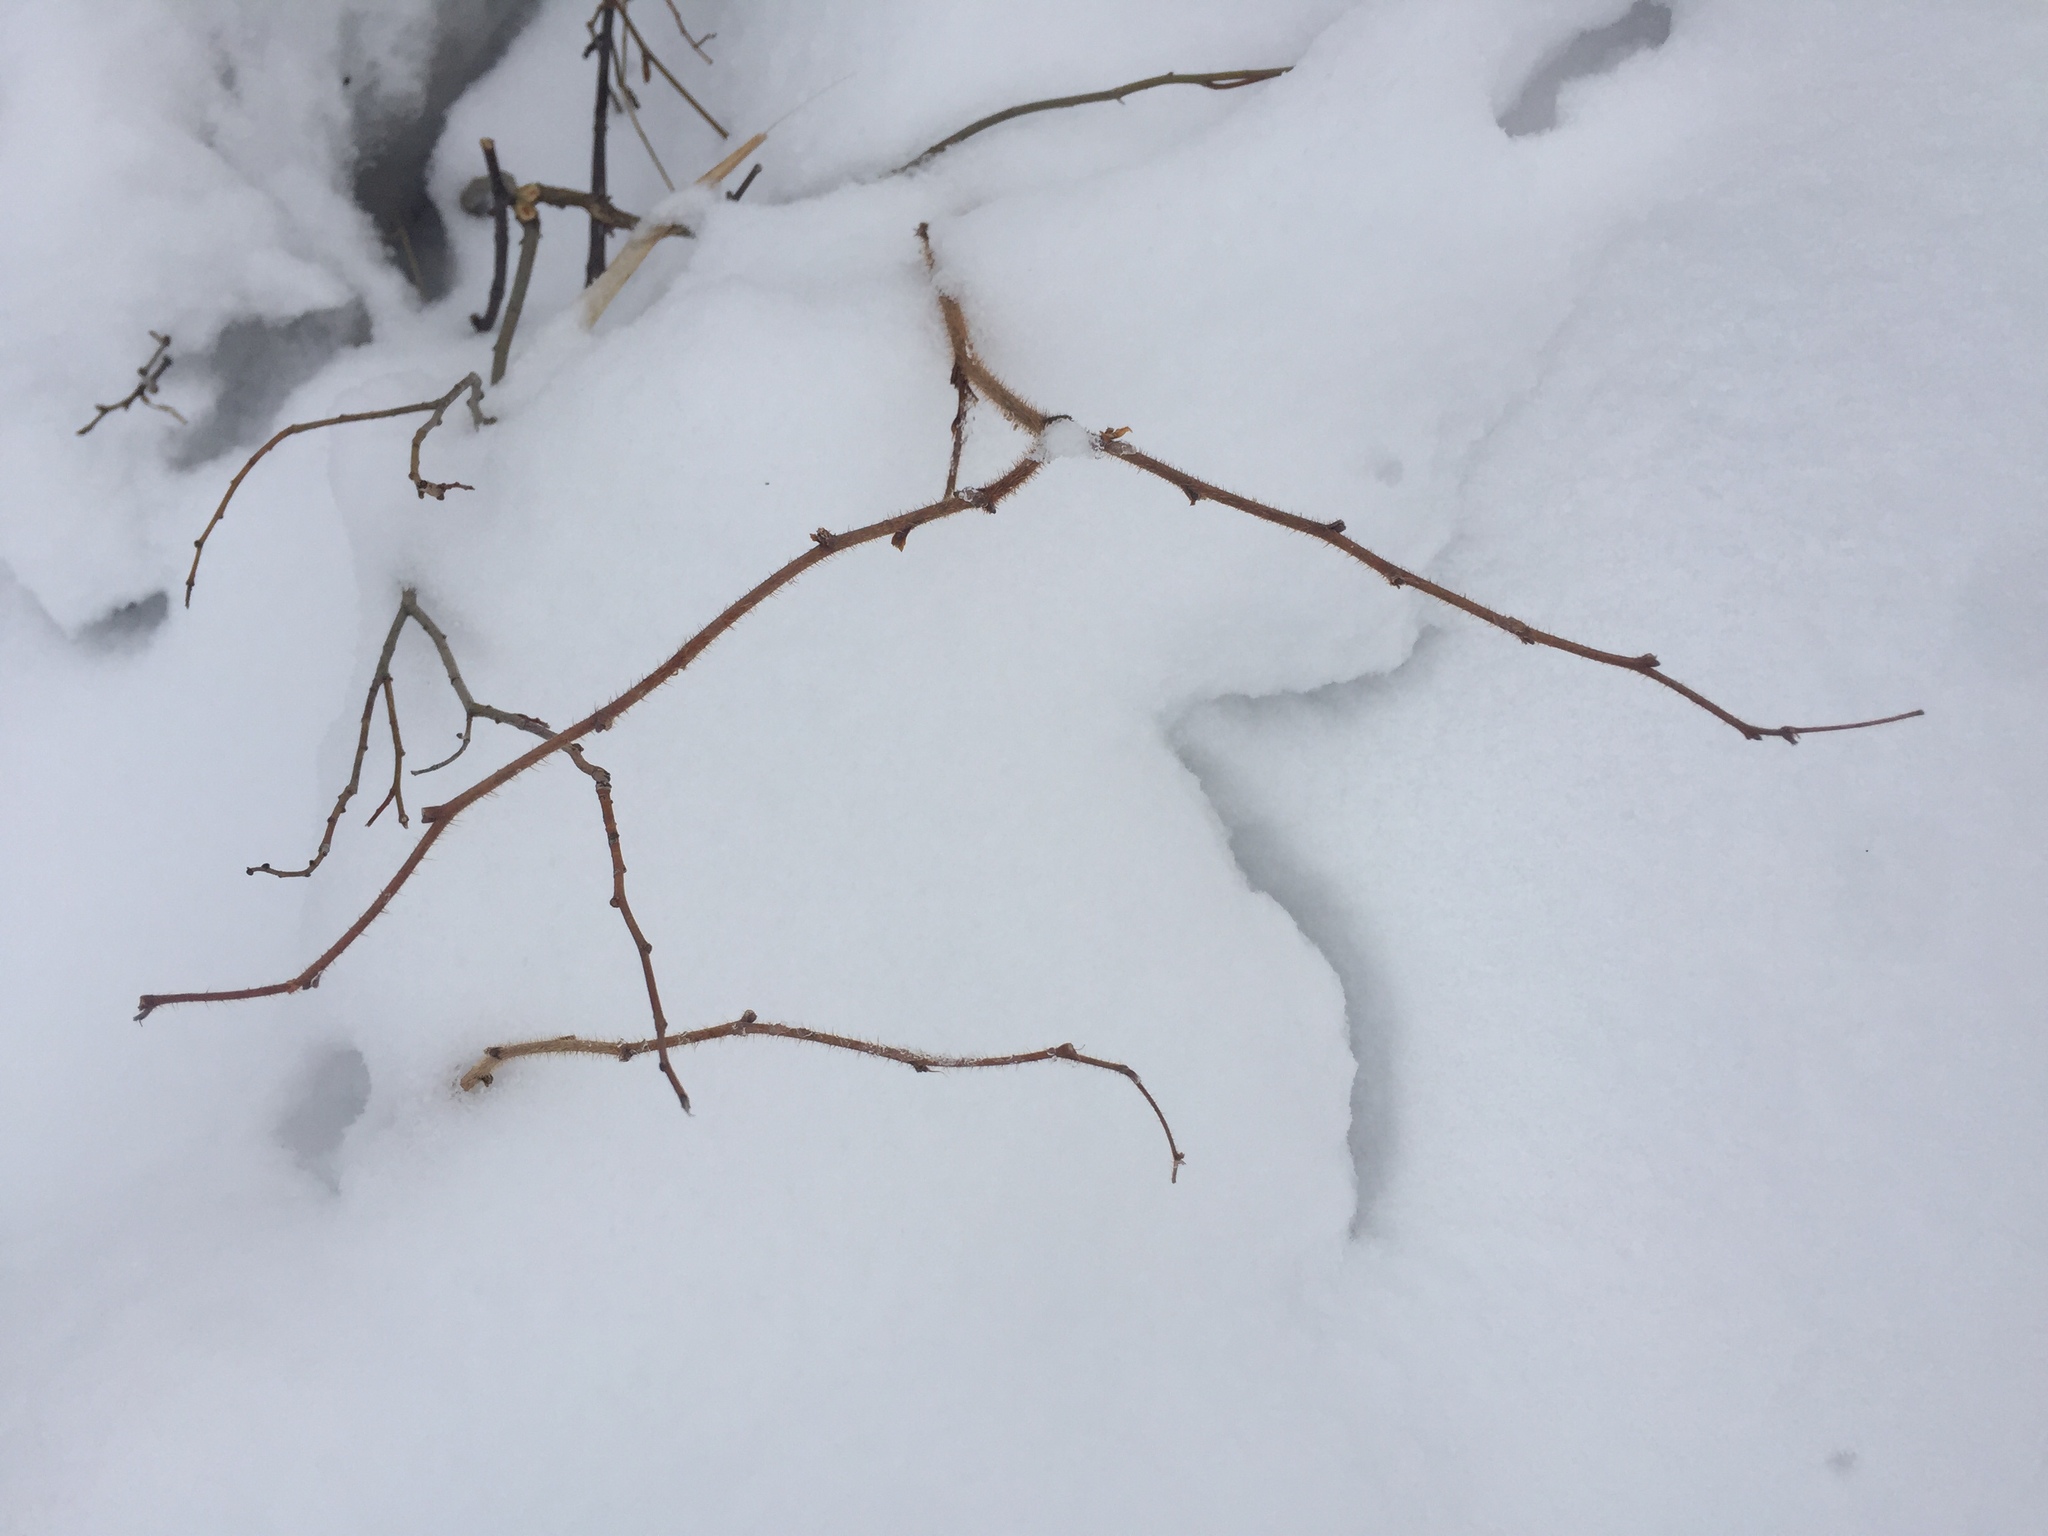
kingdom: Plantae
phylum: Tracheophyta
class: Magnoliopsida
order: Rosales
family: Rosaceae
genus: Rubus
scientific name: Rubus idaeus
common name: Raspberry
